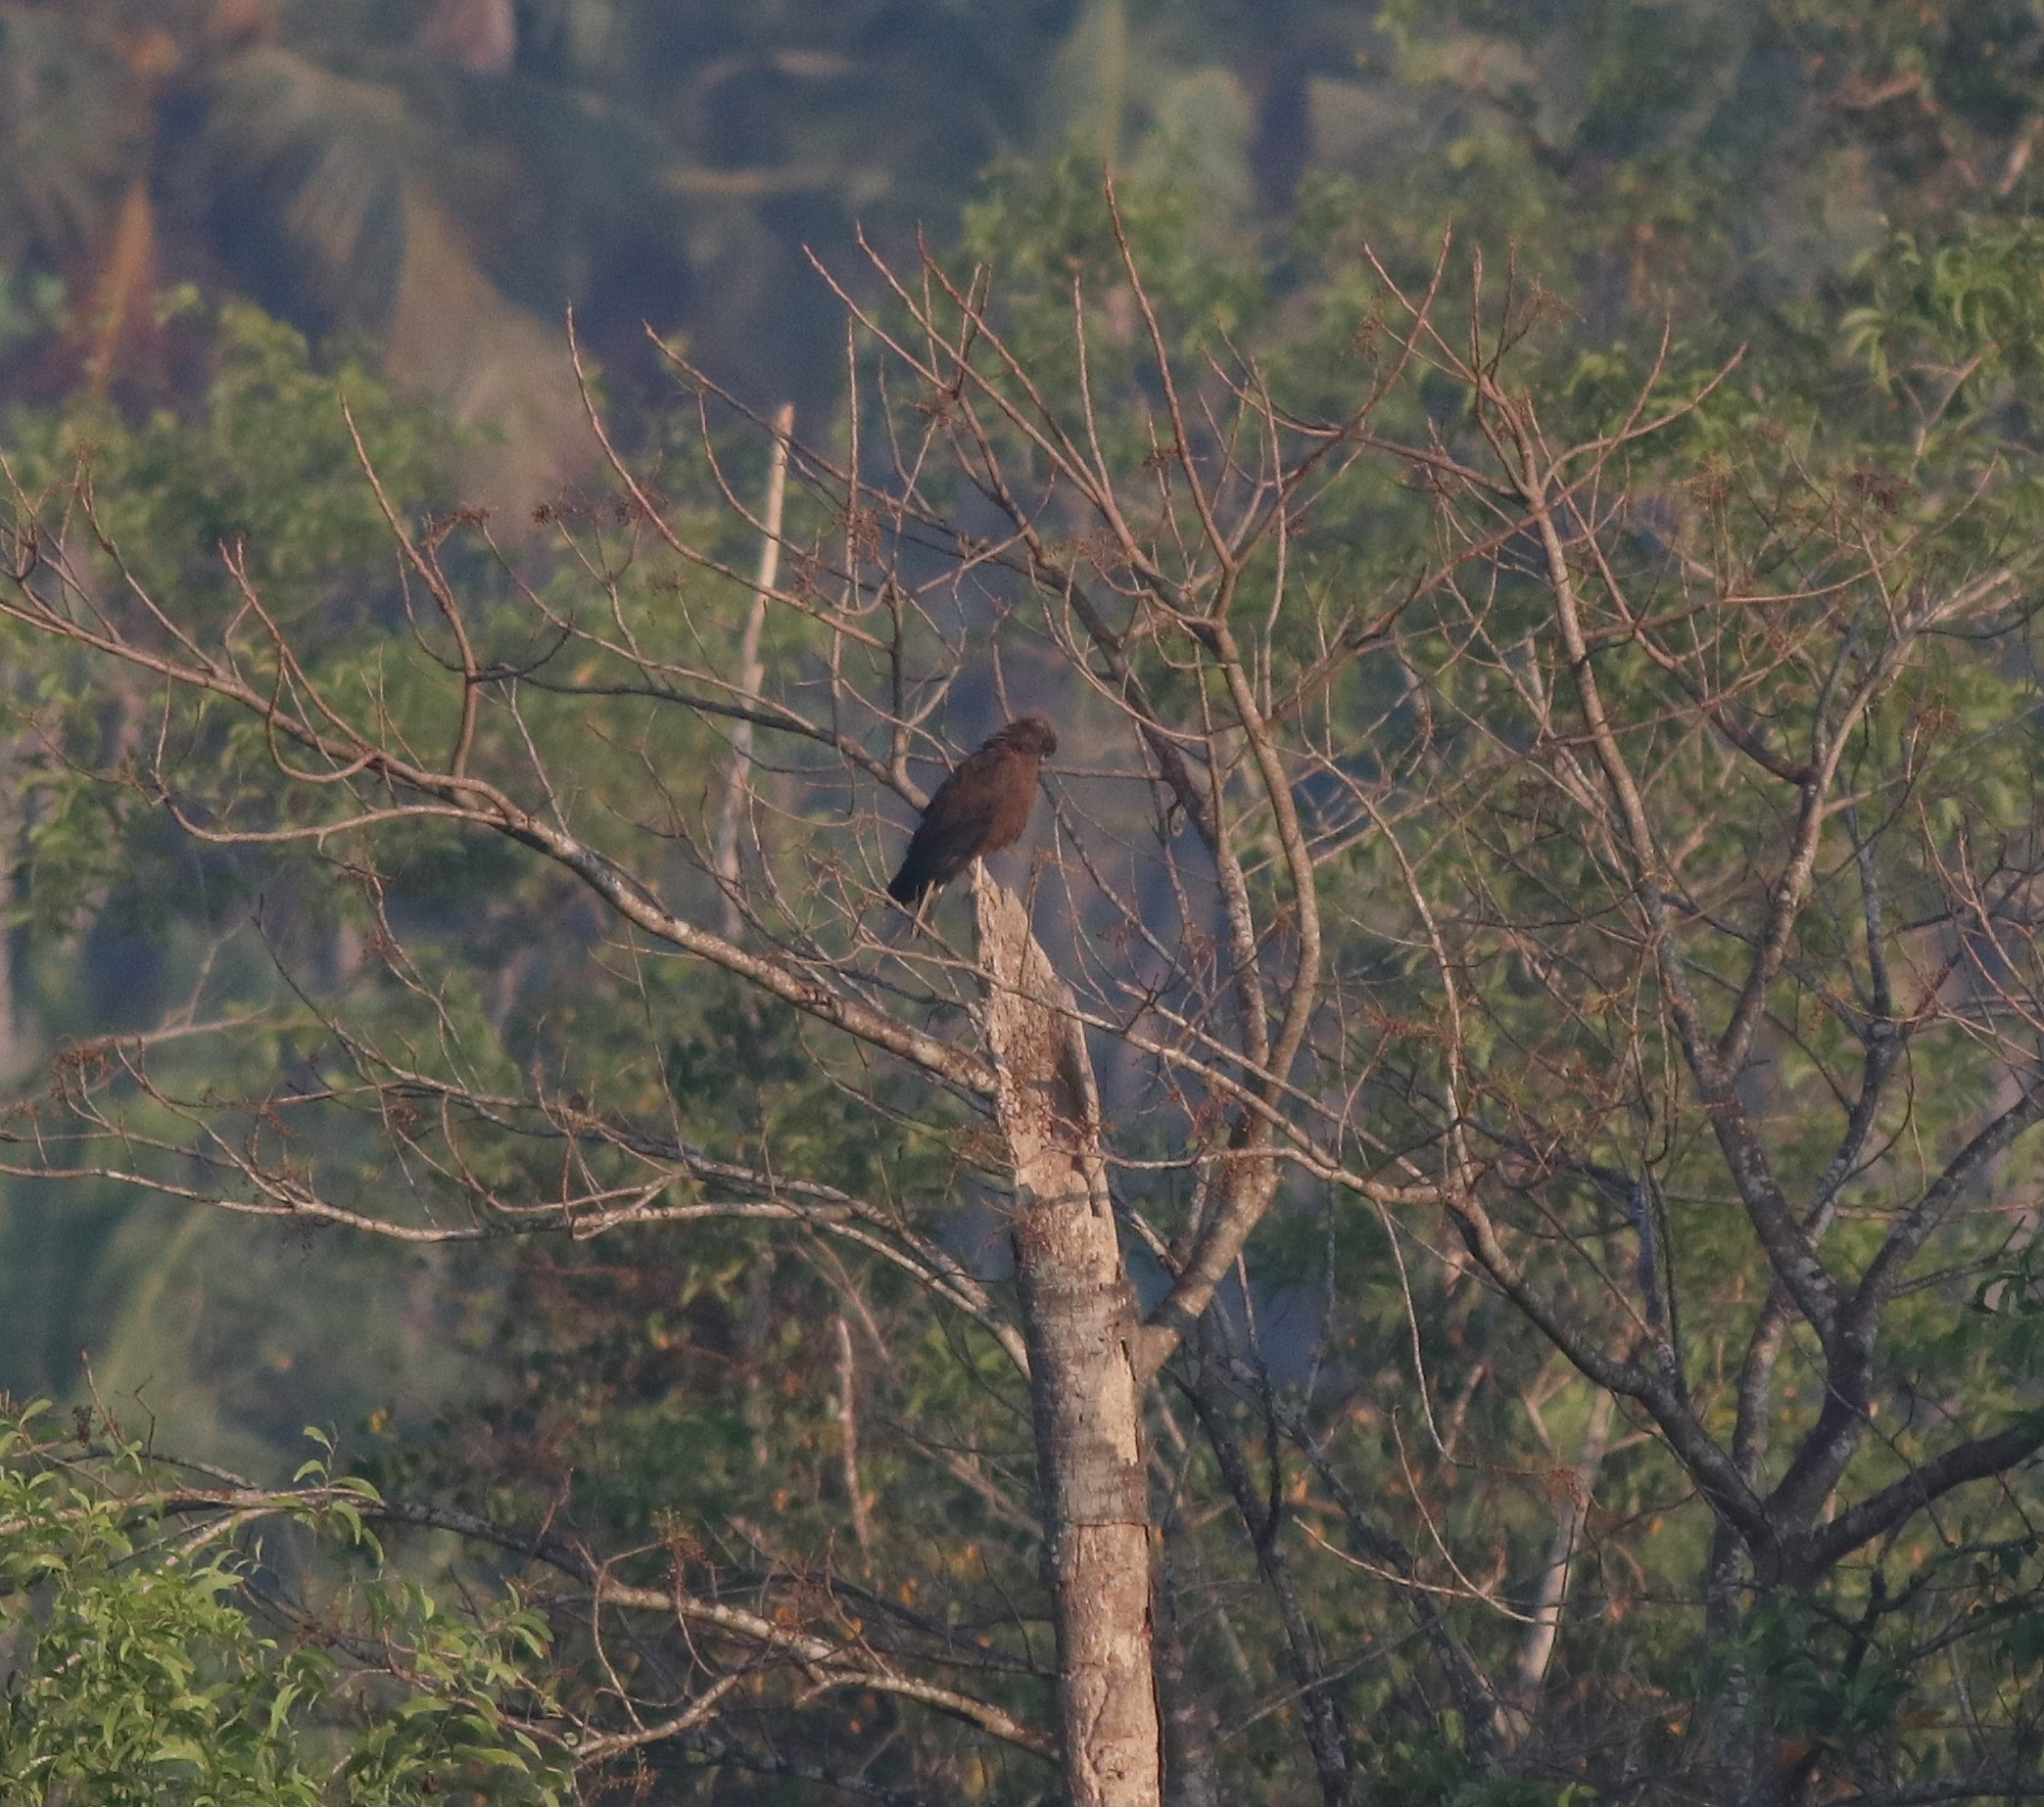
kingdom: Animalia
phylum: Chordata
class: Aves
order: Accipitriformes
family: Accipitridae
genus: Circus
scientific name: Circus aeruginosus
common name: Western marsh harrier
